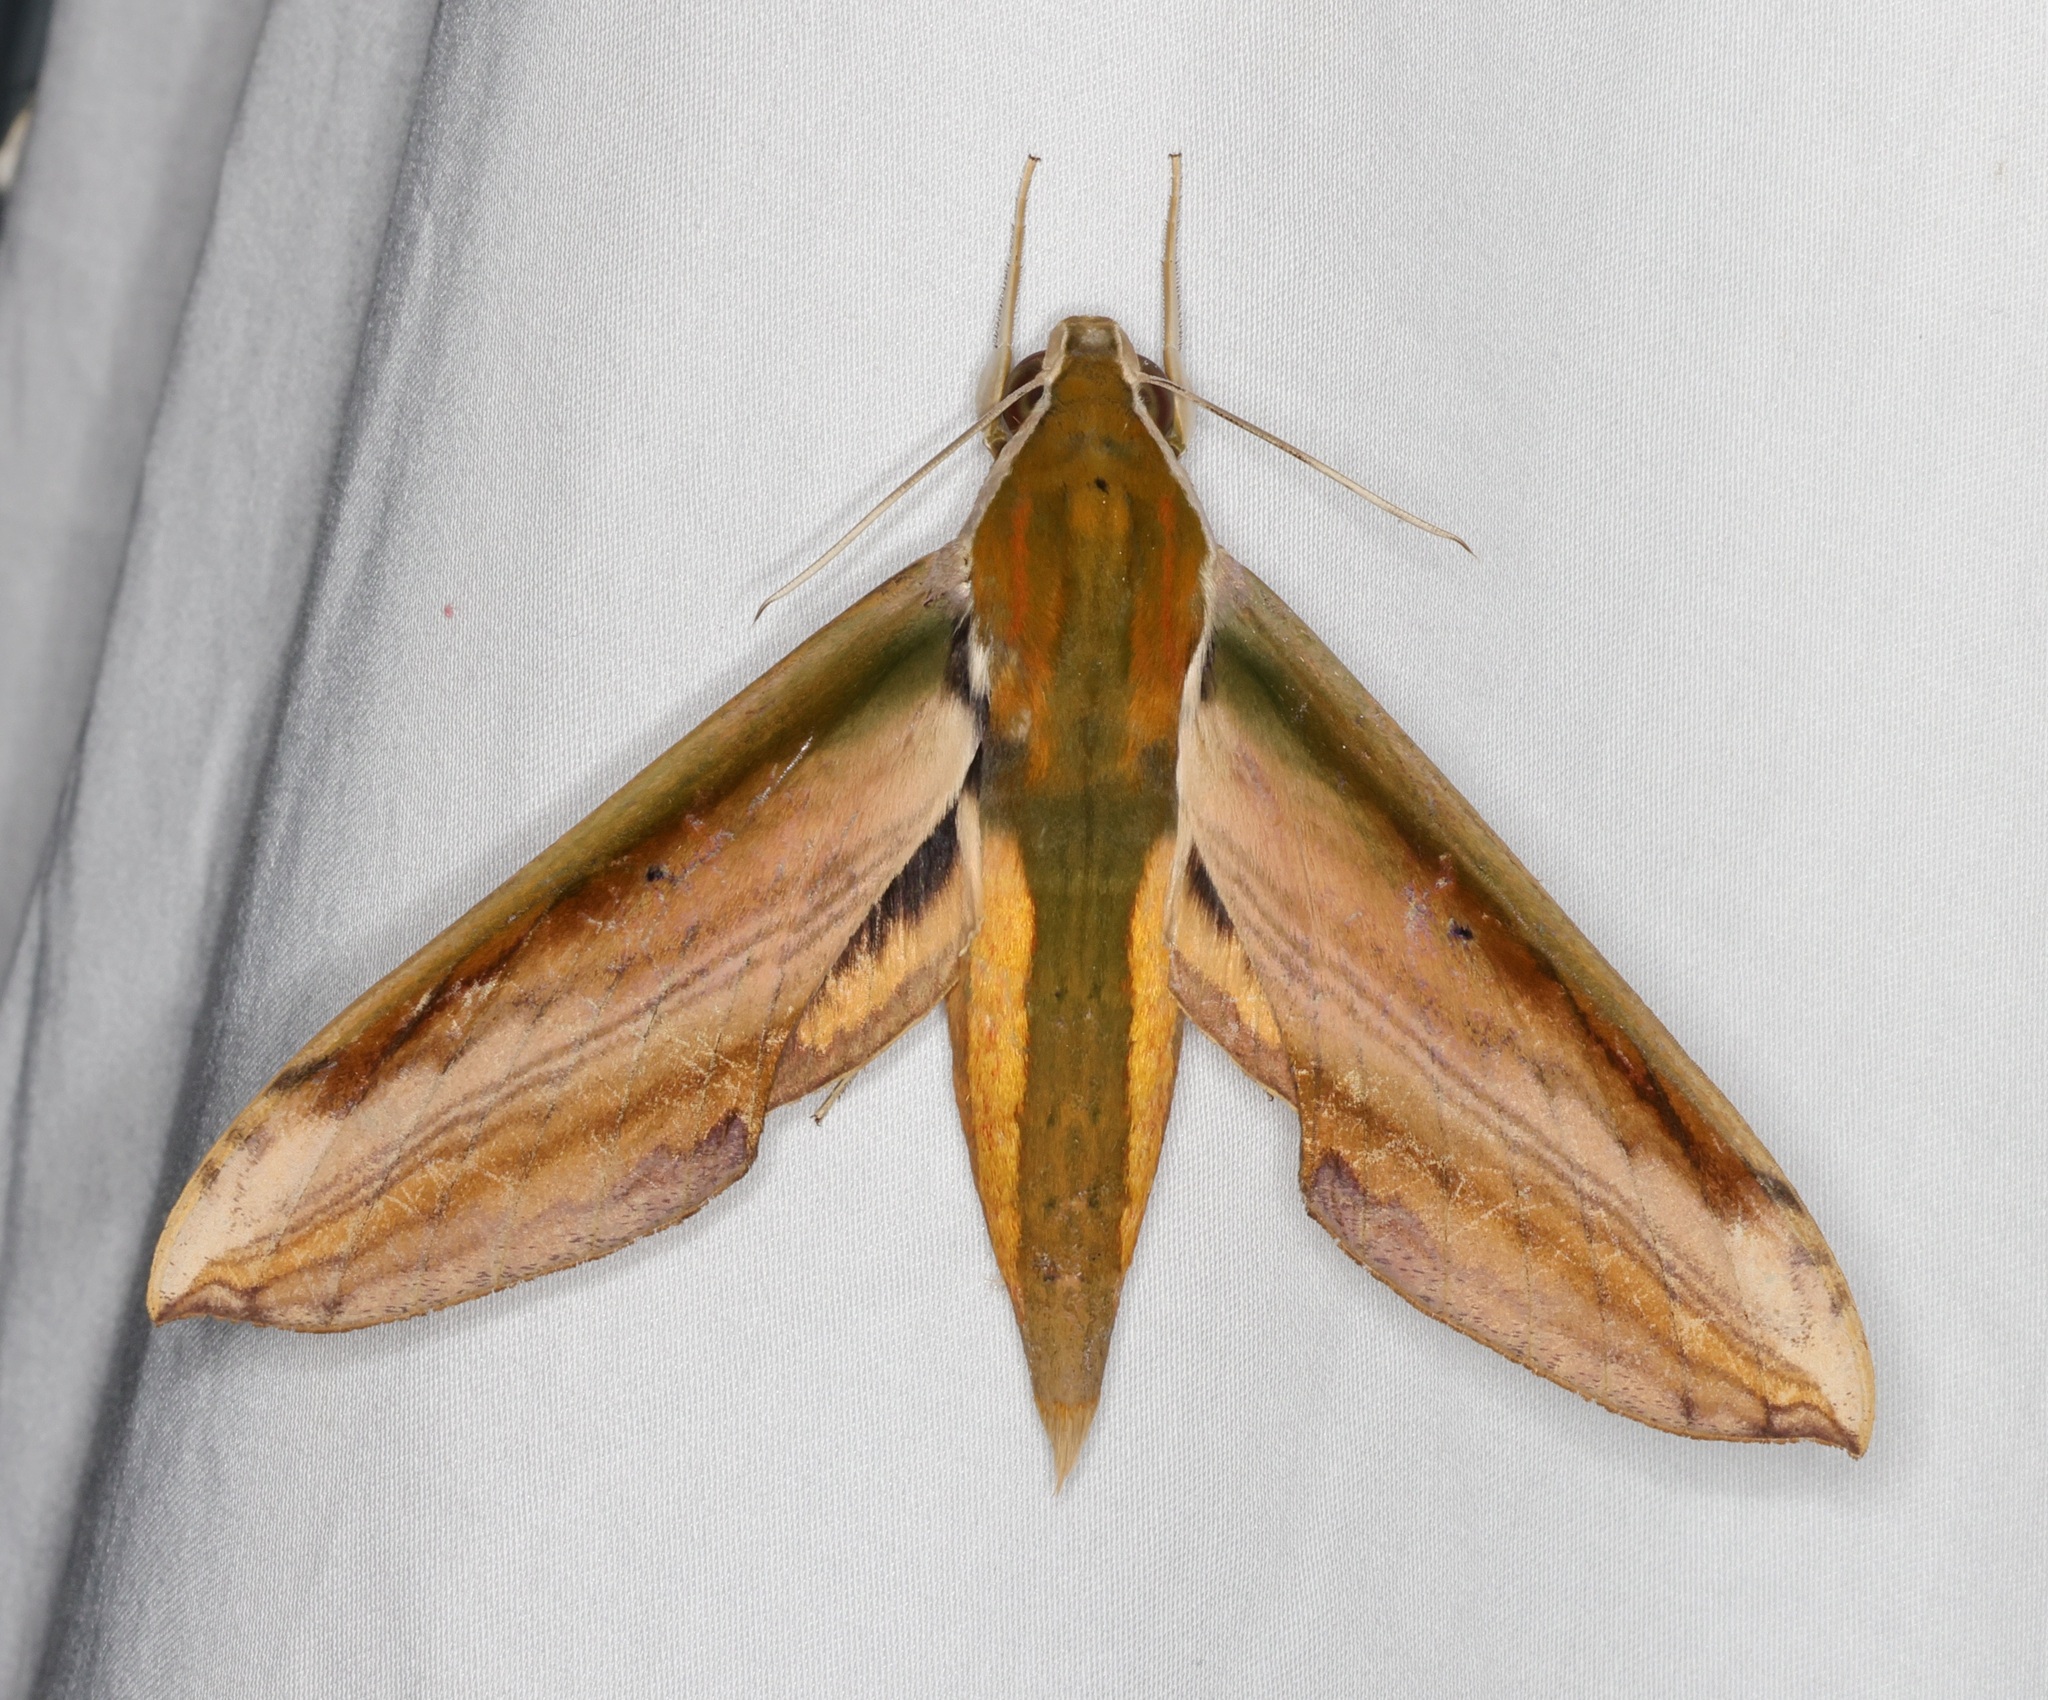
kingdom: Animalia
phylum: Arthropoda
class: Insecta
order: Lepidoptera
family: Sphingidae
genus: Theretra
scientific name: Theretra nessus
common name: Yam hawk moth
